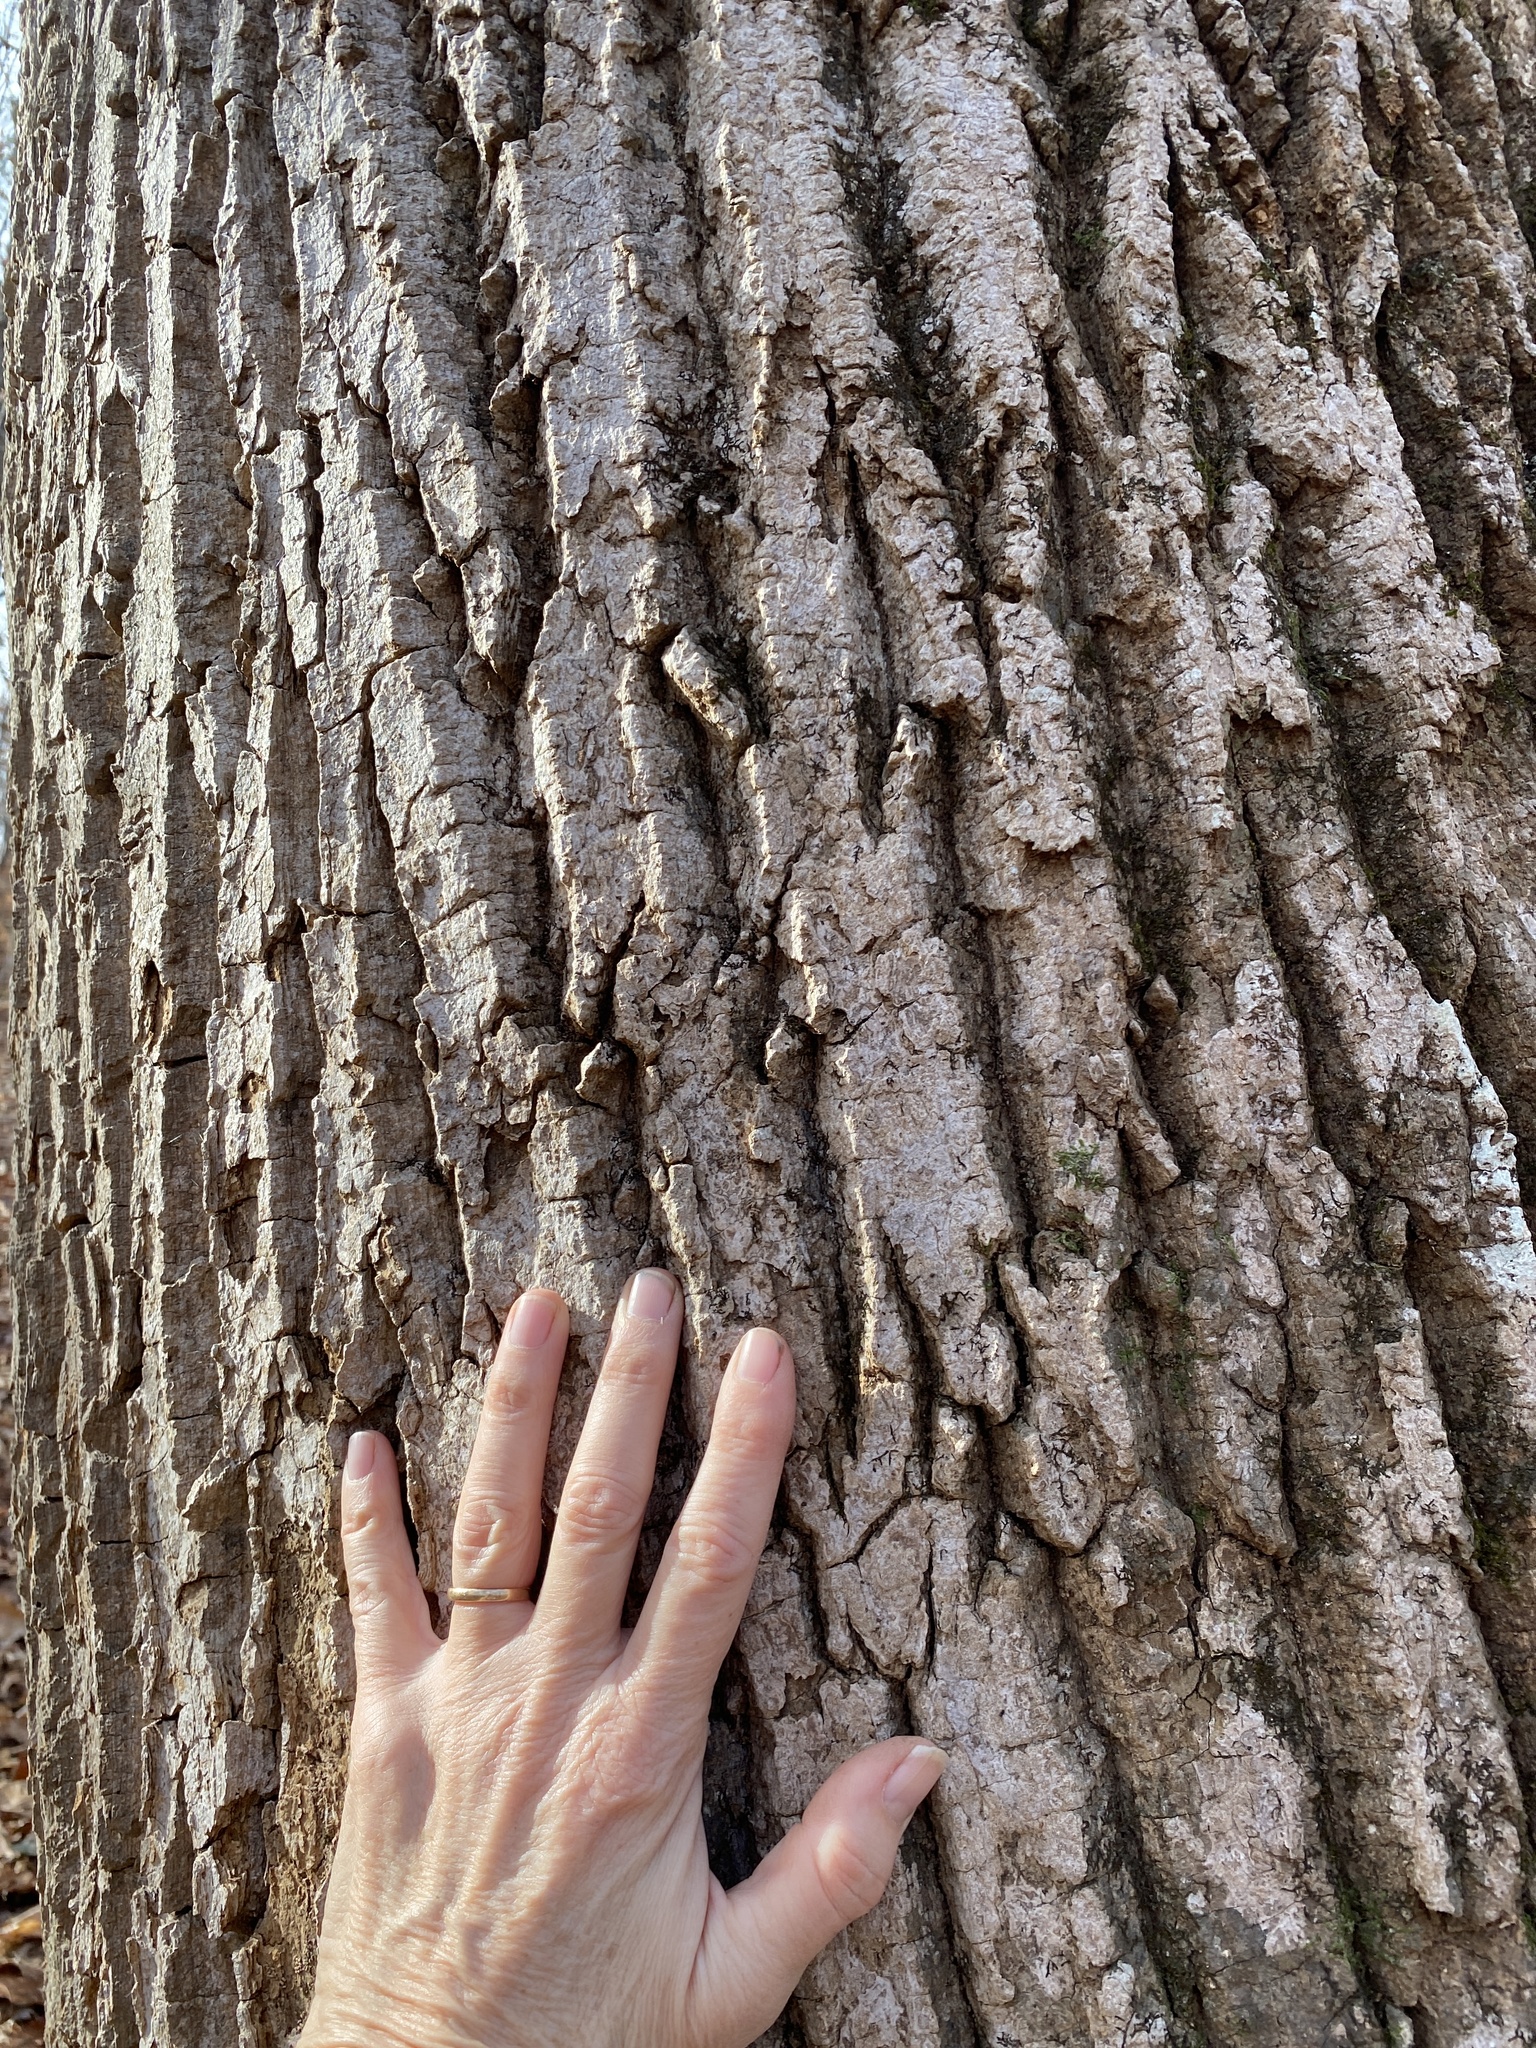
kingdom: Plantae
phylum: Tracheophyta
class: Magnoliopsida
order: Magnoliales
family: Magnoliaceae
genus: Liriodendron
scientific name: Liriodendron tulipifera
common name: Tulip tree
